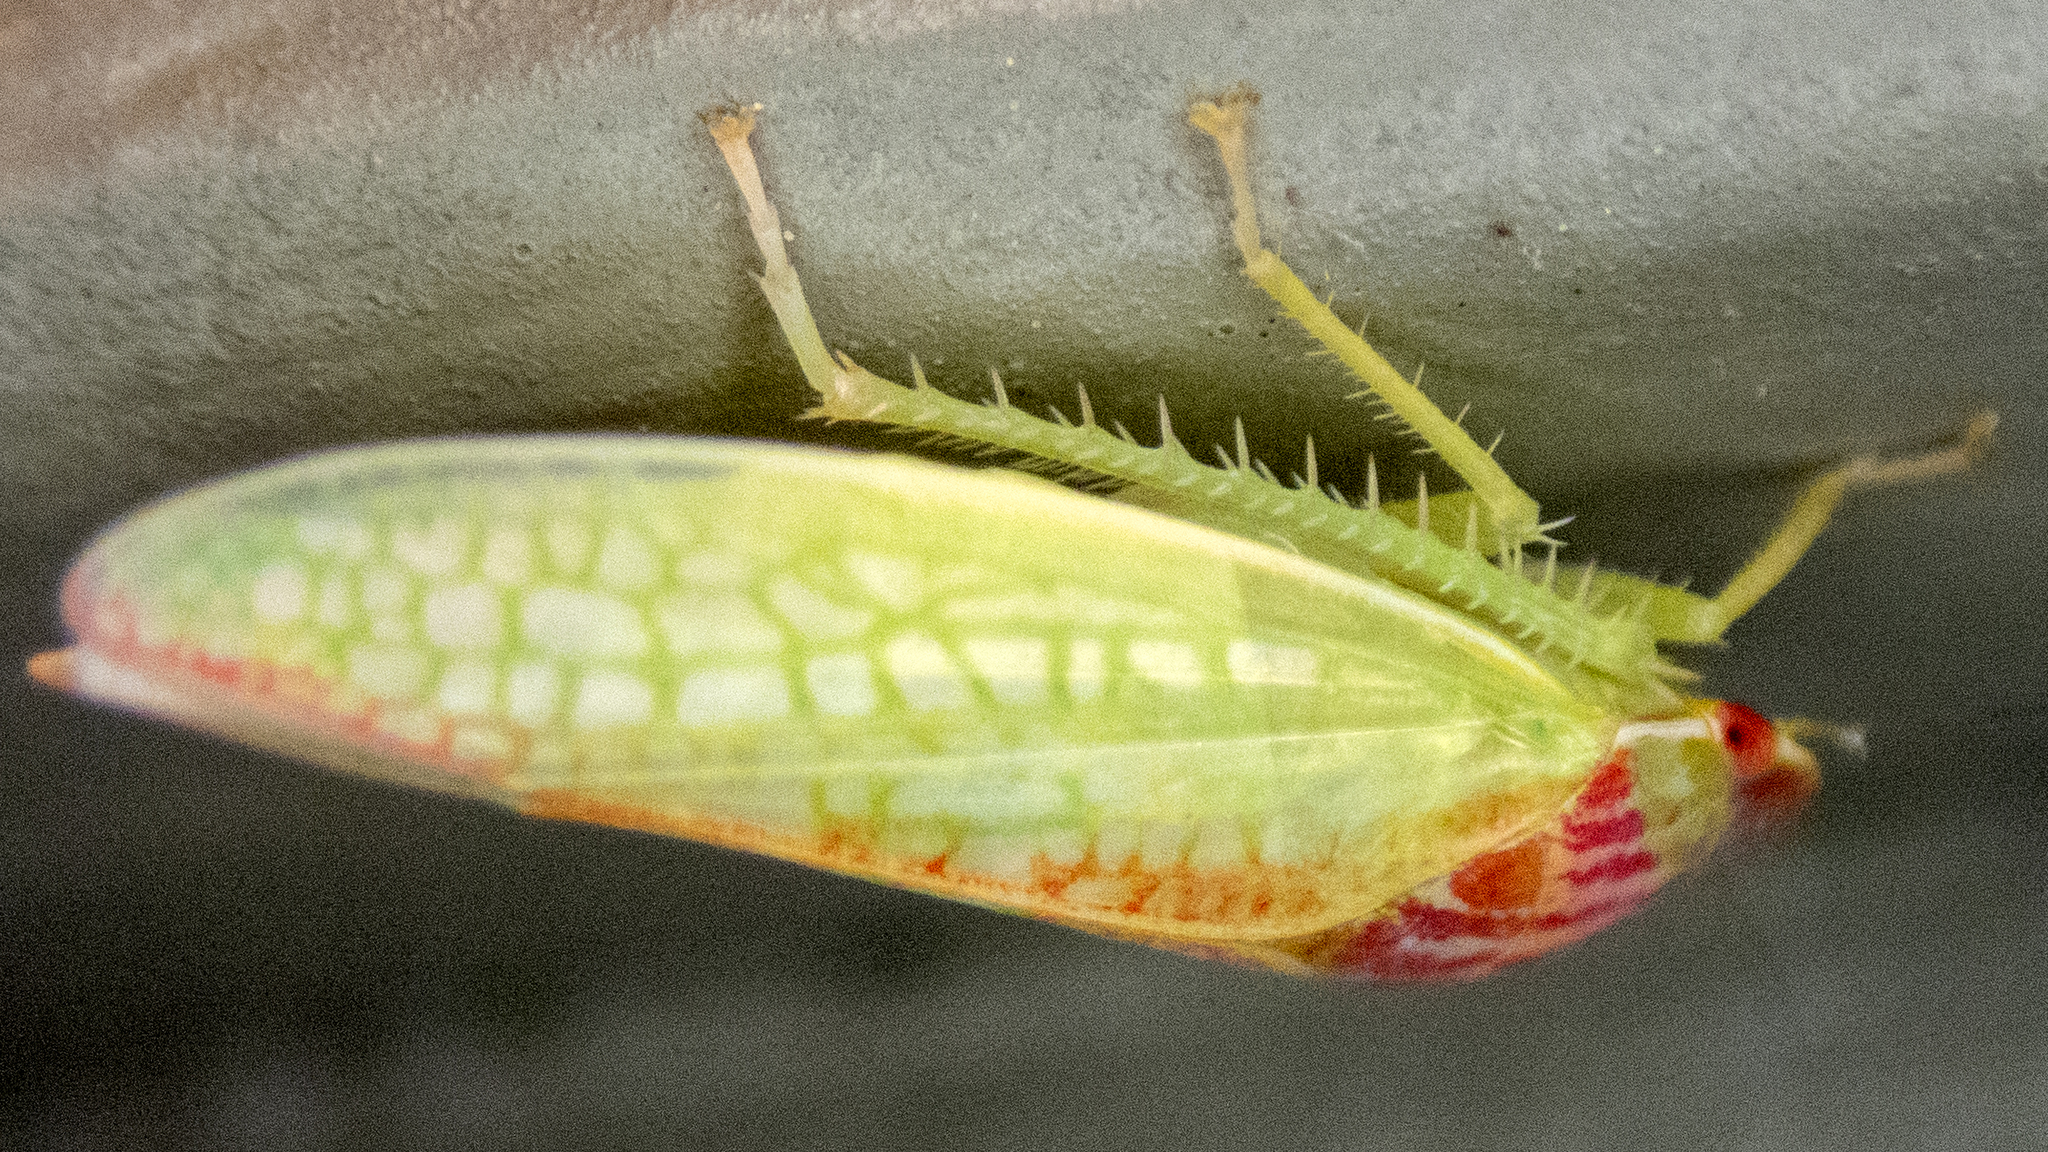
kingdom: Animalia
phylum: Arthropoda
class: Insecta
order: Hemiptera
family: Cicadellidae
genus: Gyponana
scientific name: Gyponana octolineata
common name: Eight-lined leafhopper
